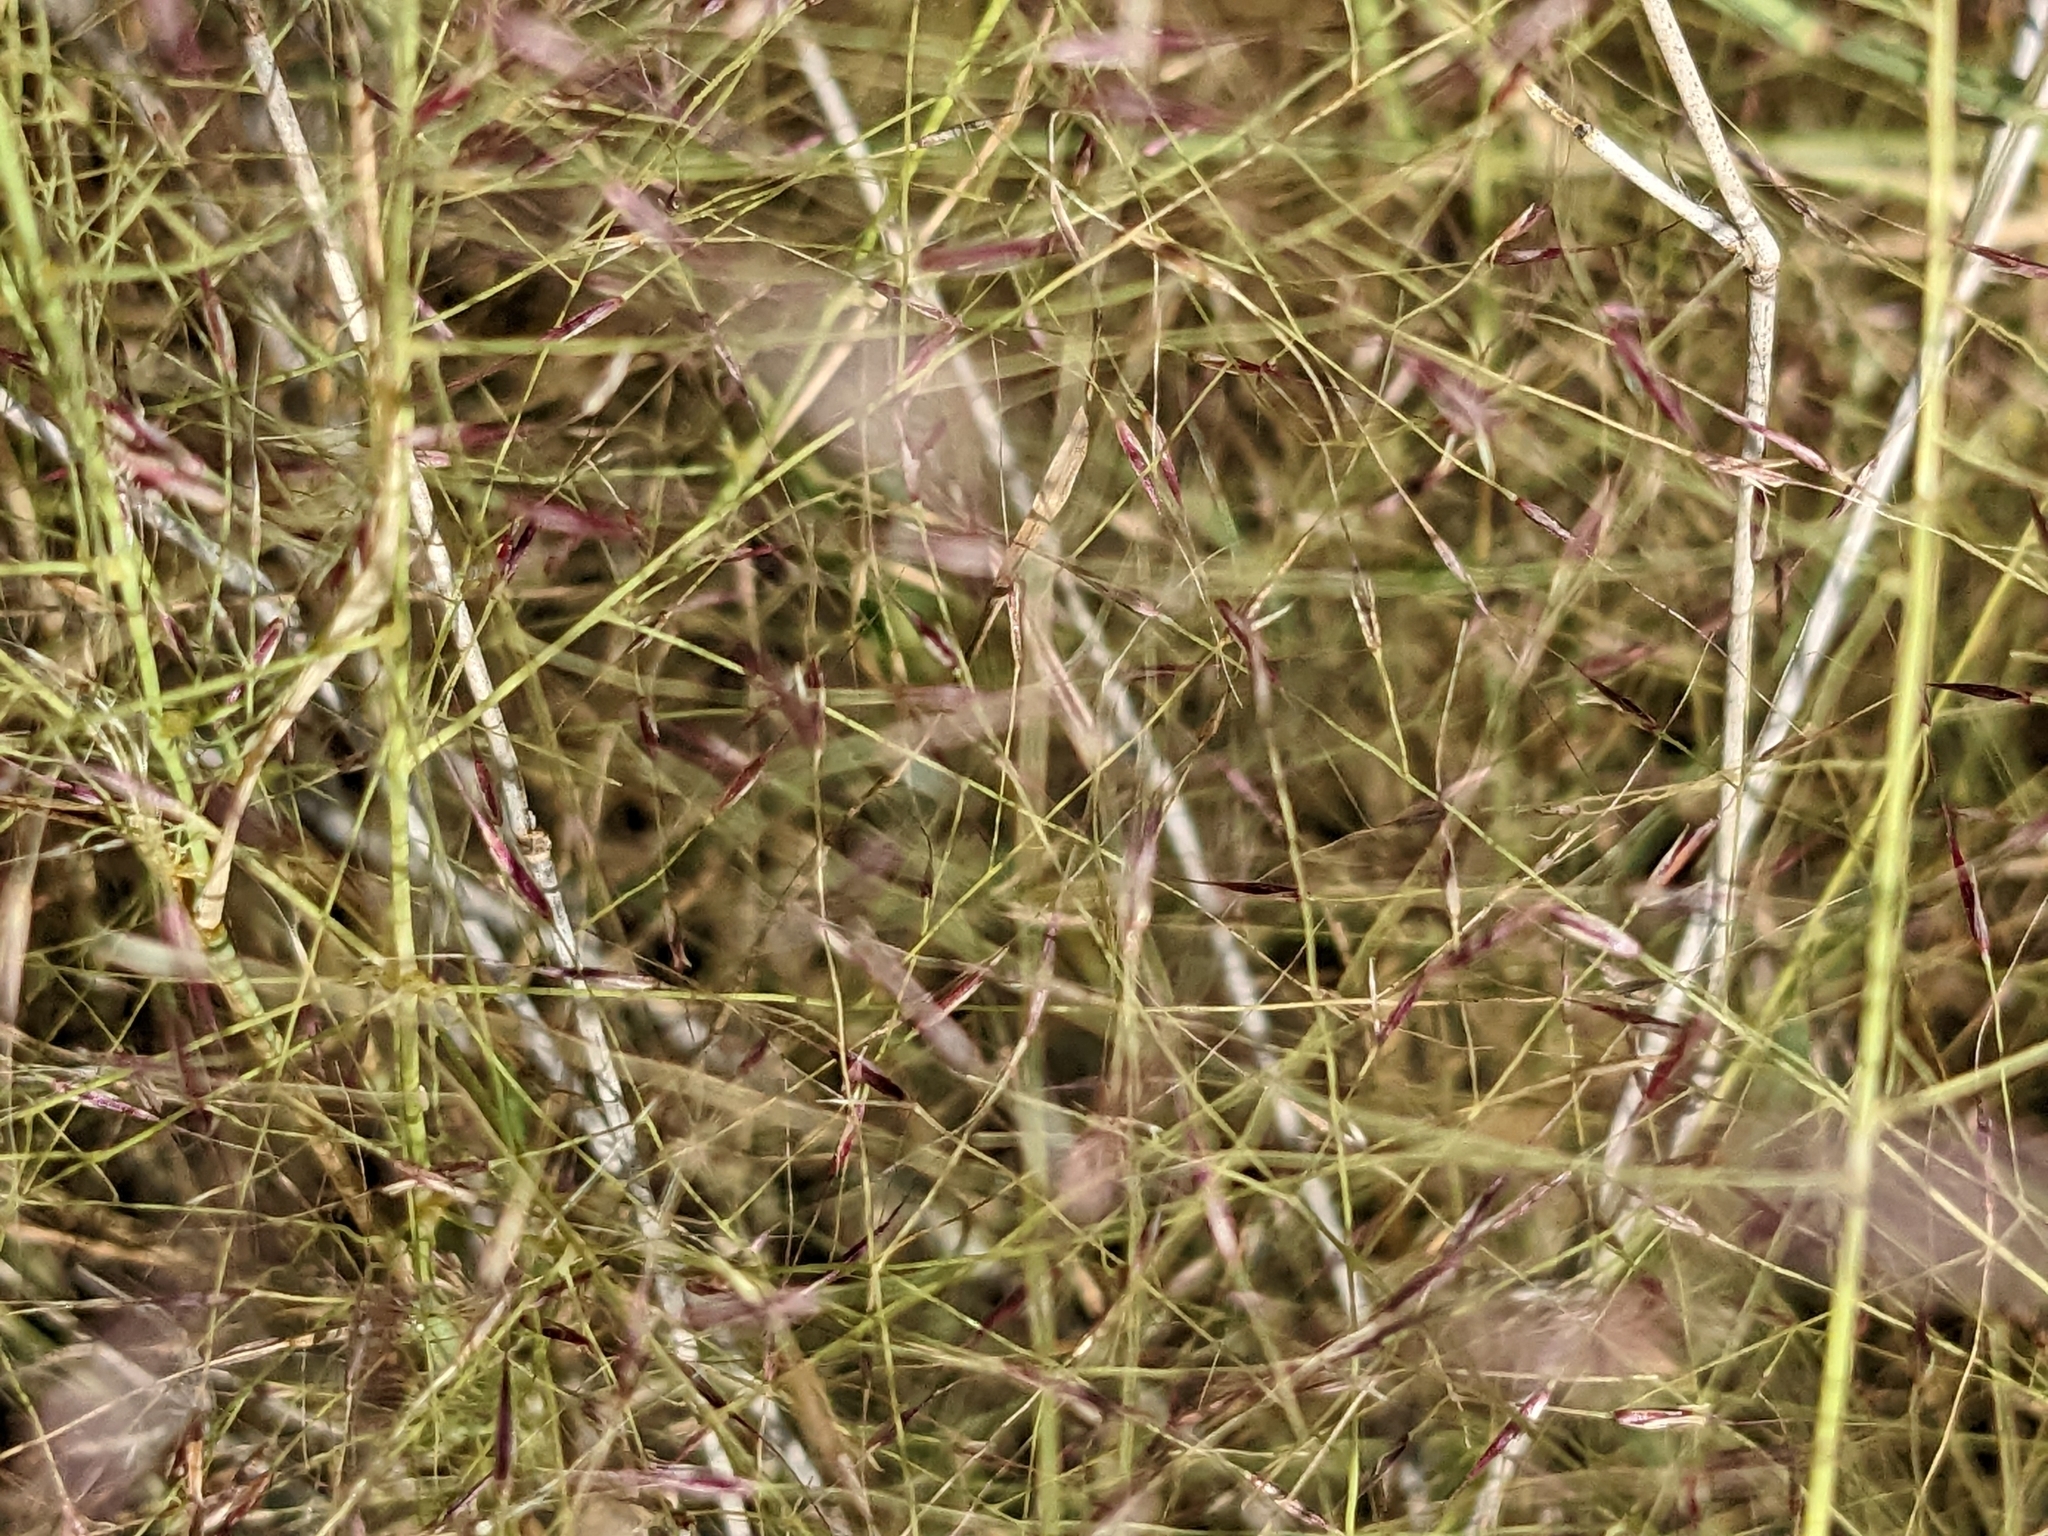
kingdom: Plantae
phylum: Tracheophyta
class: Liliopsida
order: Poales
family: Poaceae
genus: Muhlenbergia
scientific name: Muhlenbergia porteri
